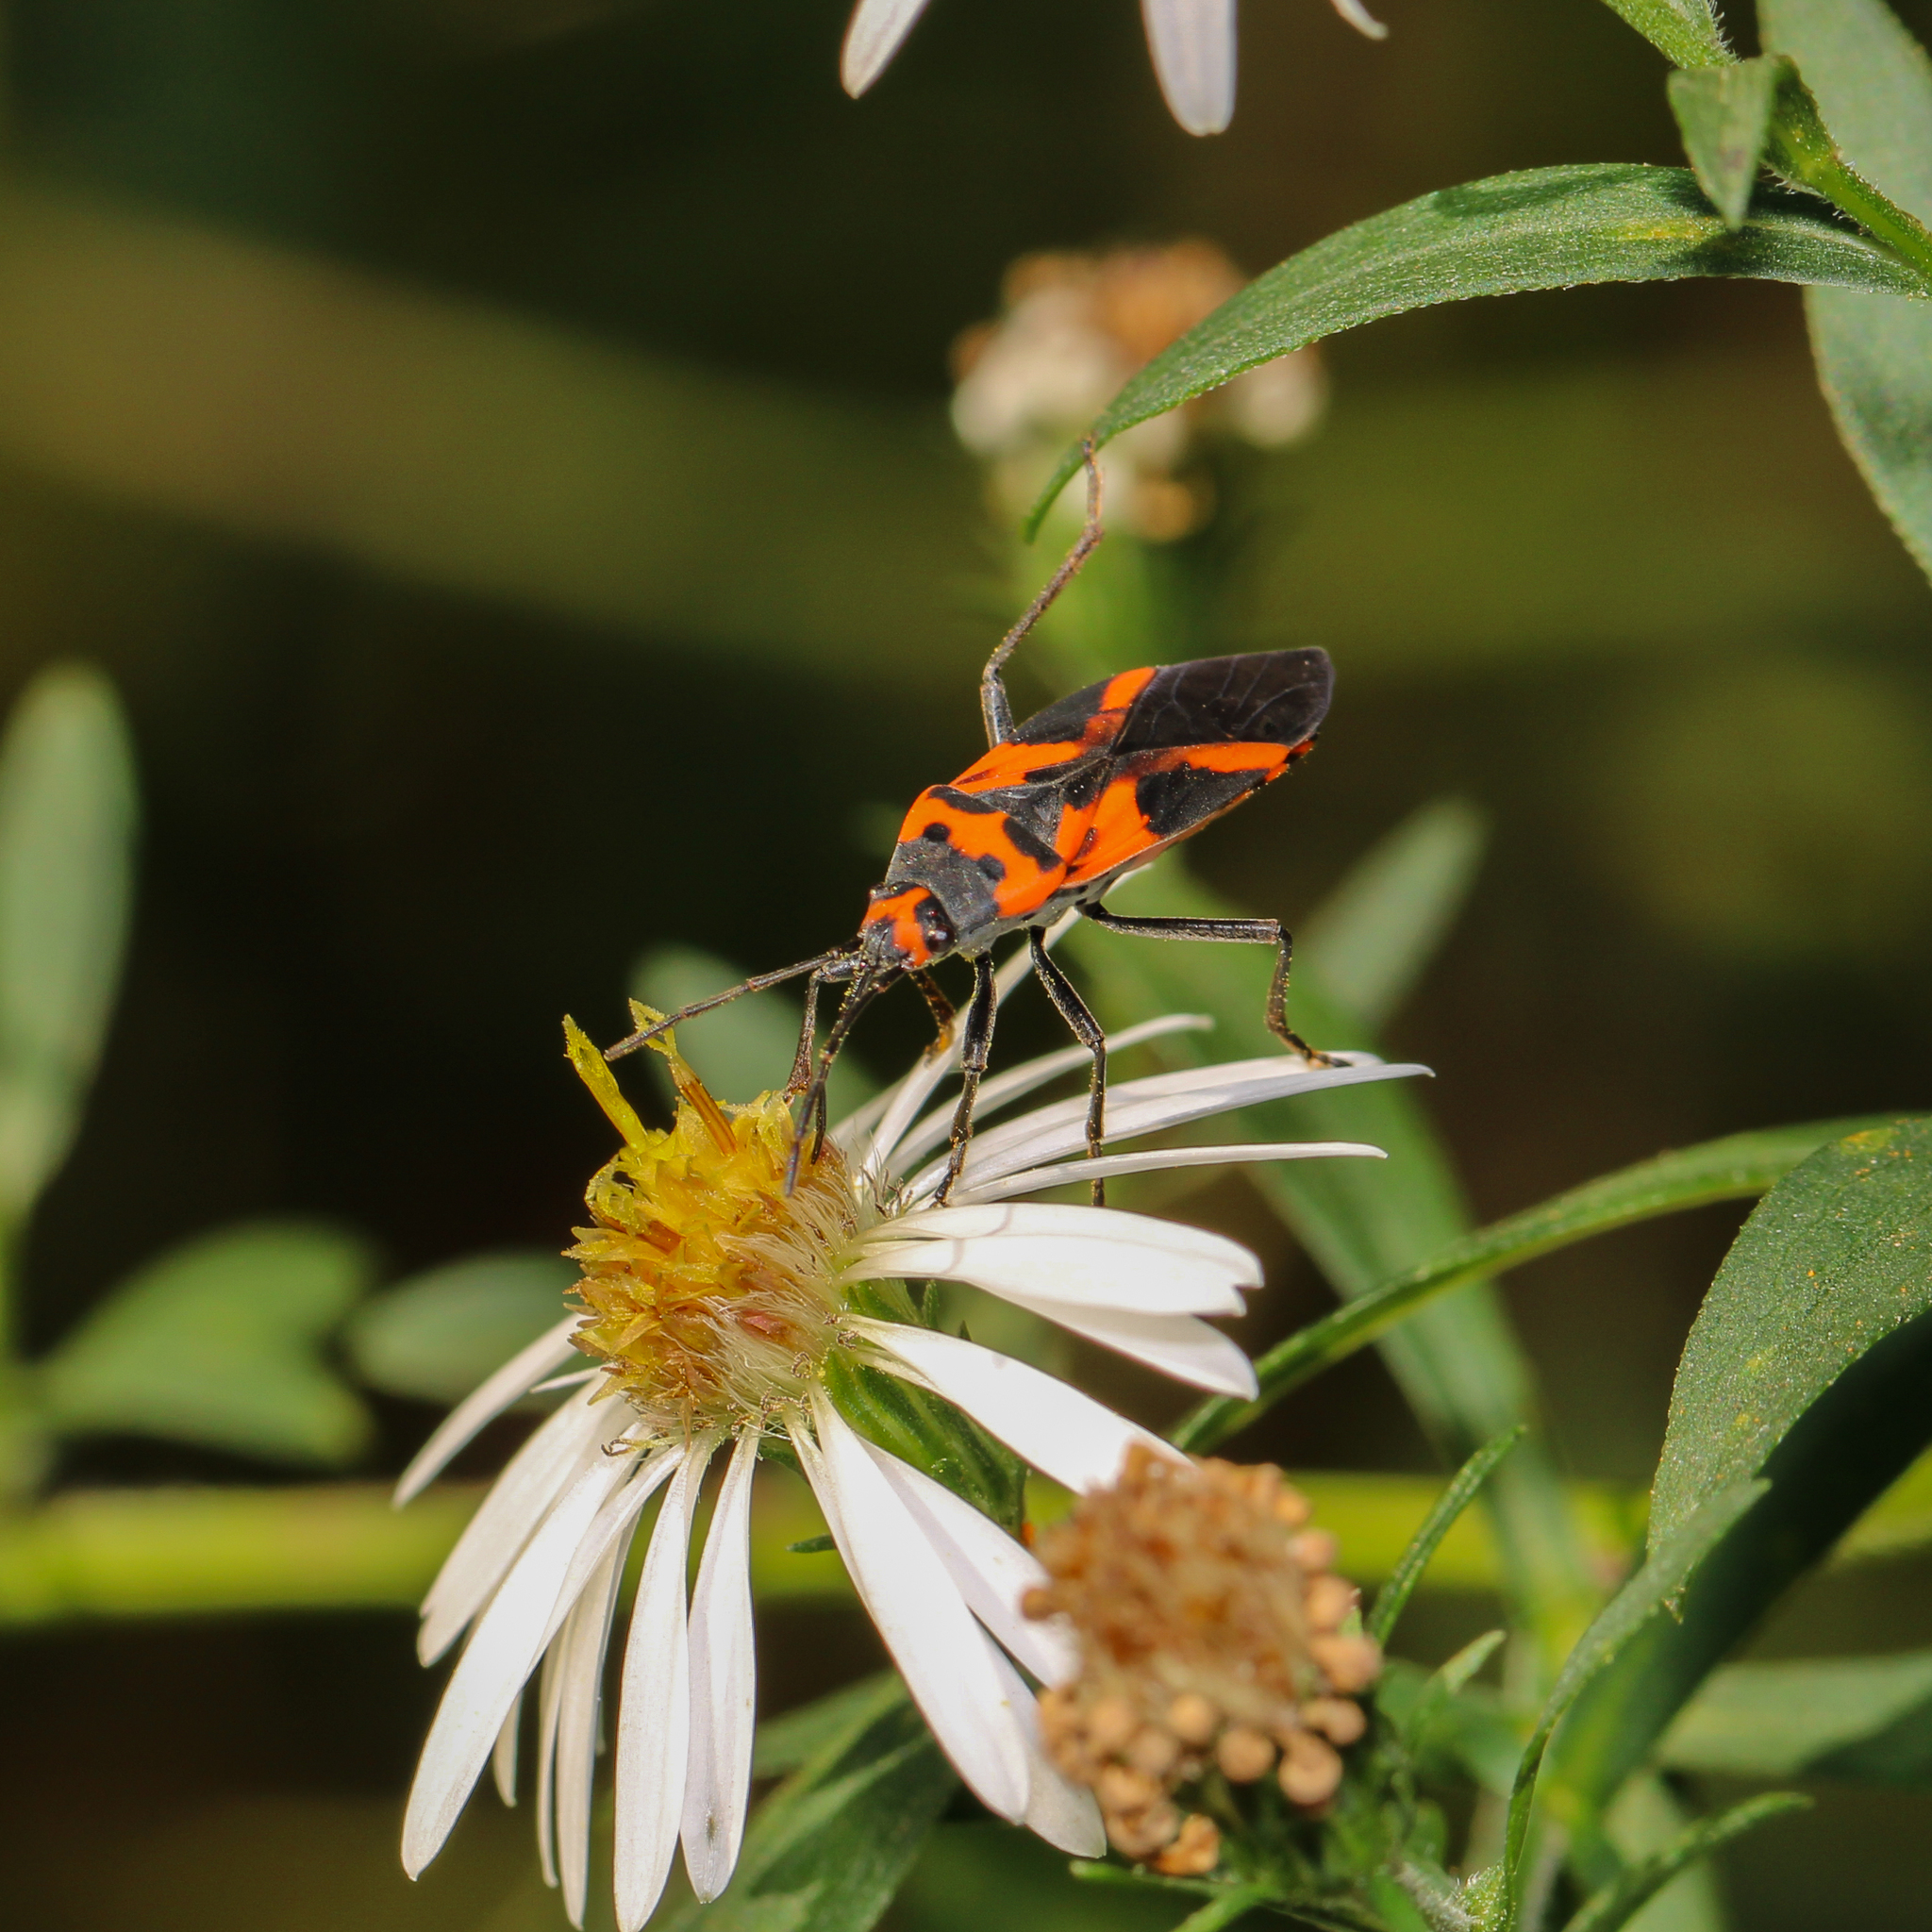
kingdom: Animalia
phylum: Arthropoda
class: Insecta
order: Hemiptera
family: Lygaeidae
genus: Lygaeus
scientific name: Lygaeus turcicus
